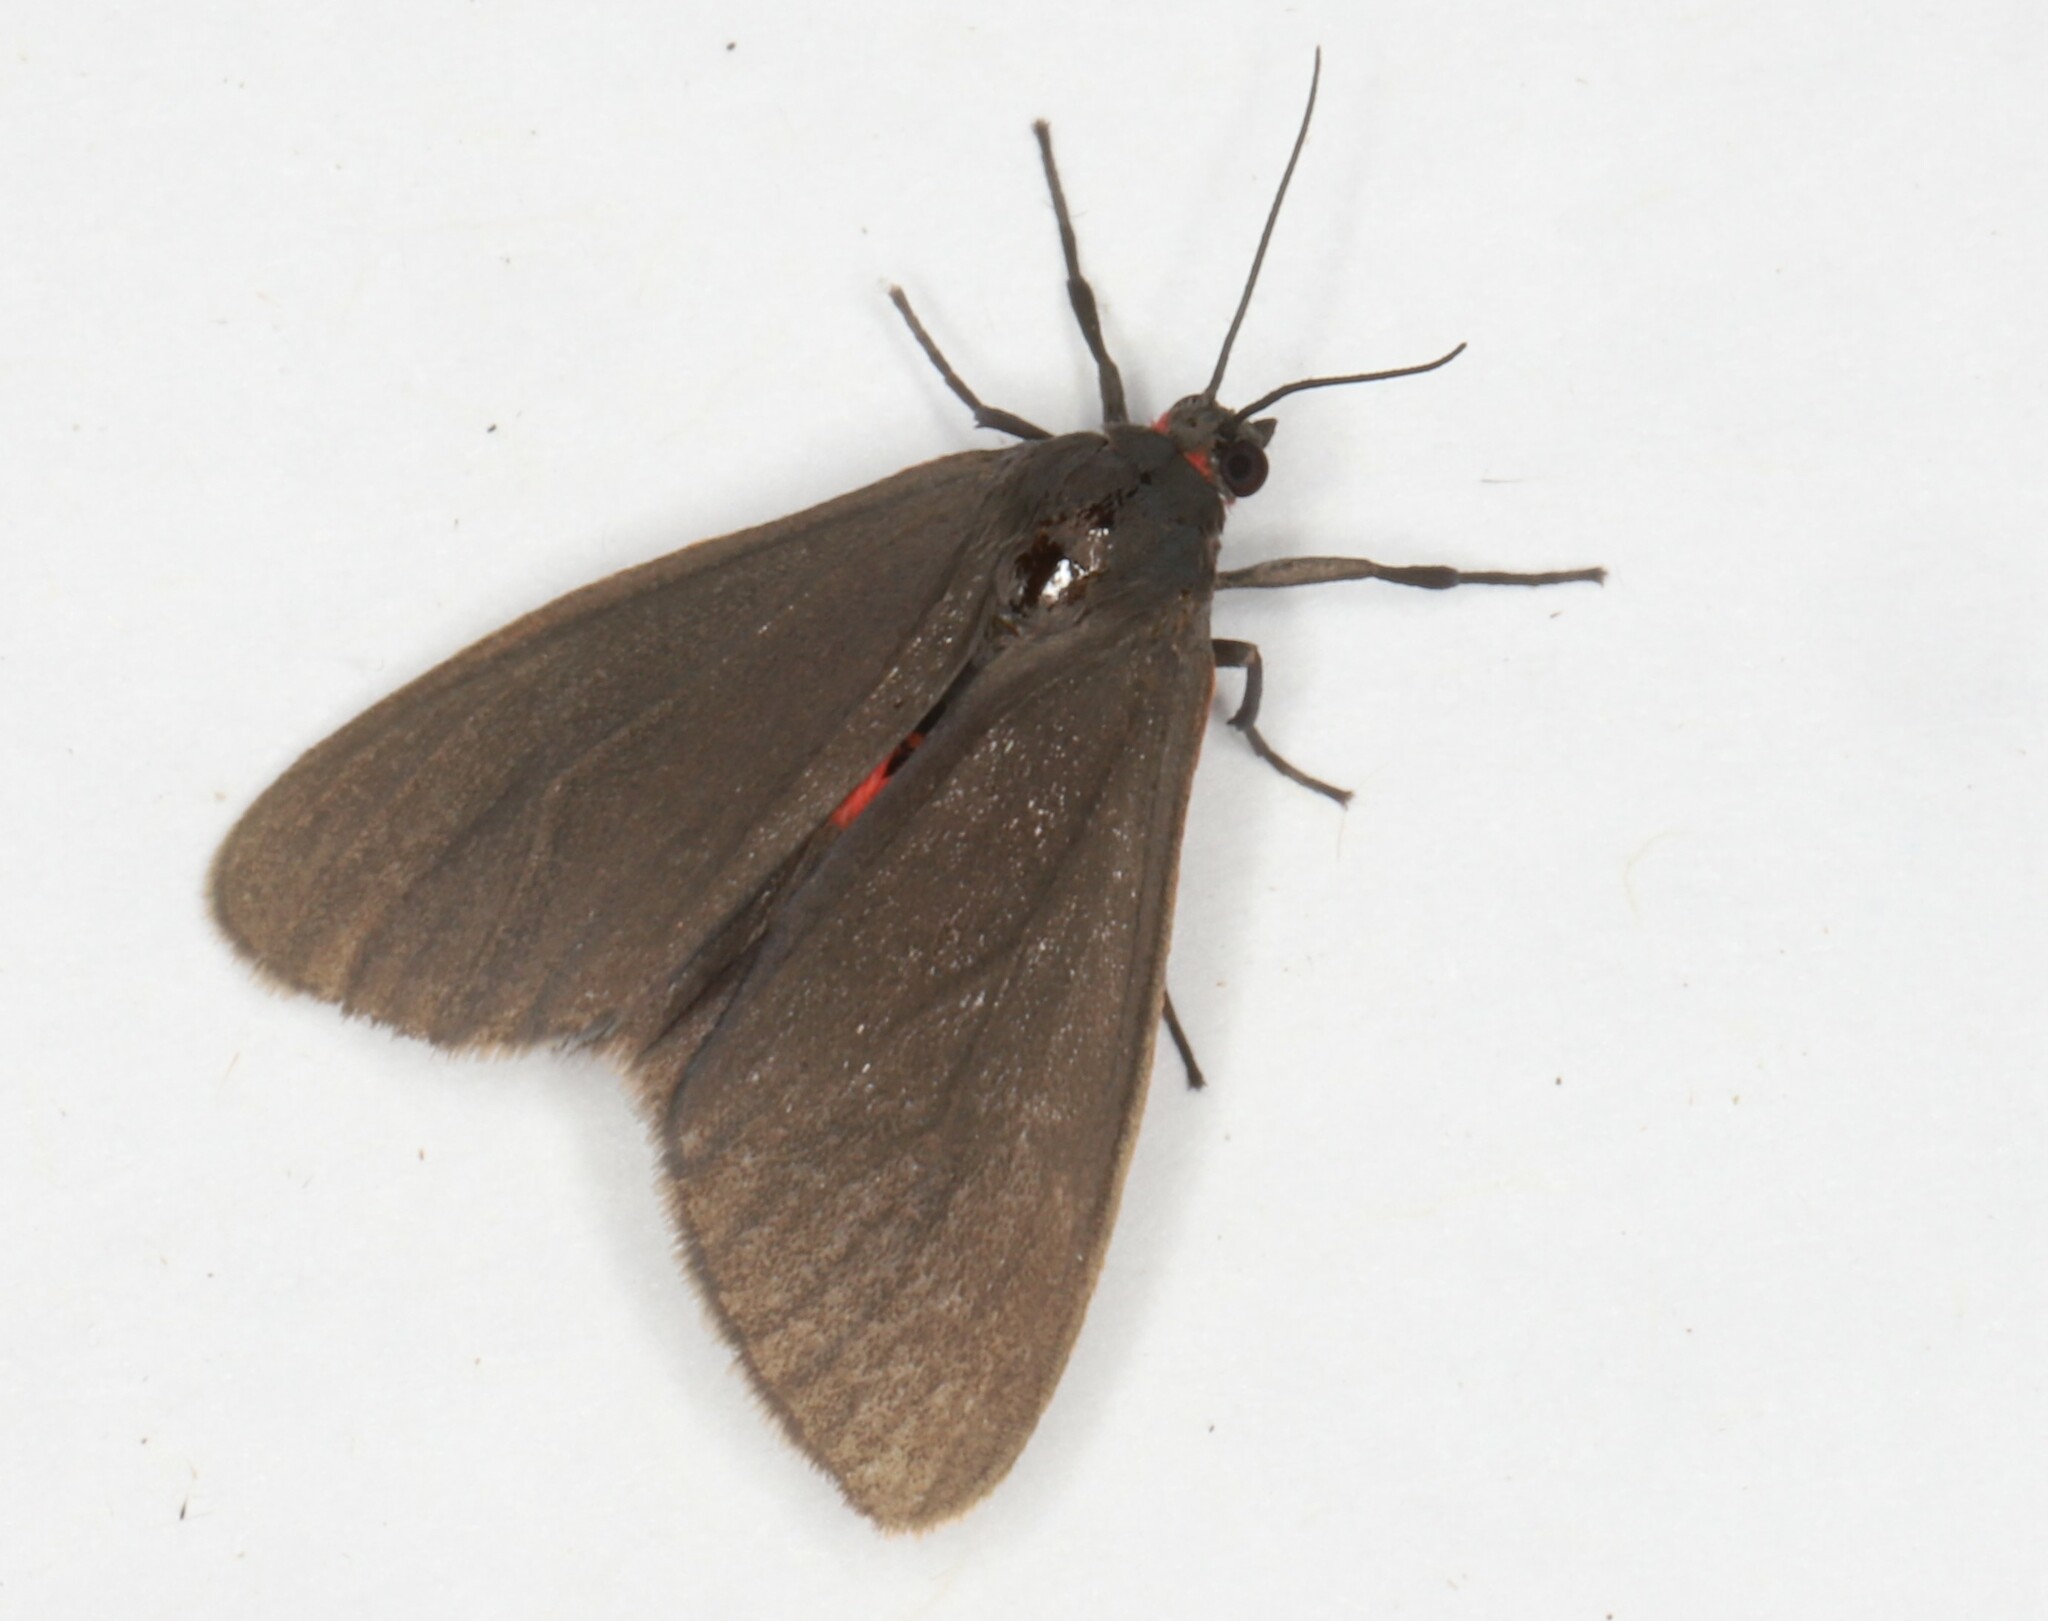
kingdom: Animalia
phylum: Arthropoda
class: Insecta
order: Lepidoptera
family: Erebidae
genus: Virbia
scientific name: Virbia laeta
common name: Joyful holomelina moth
